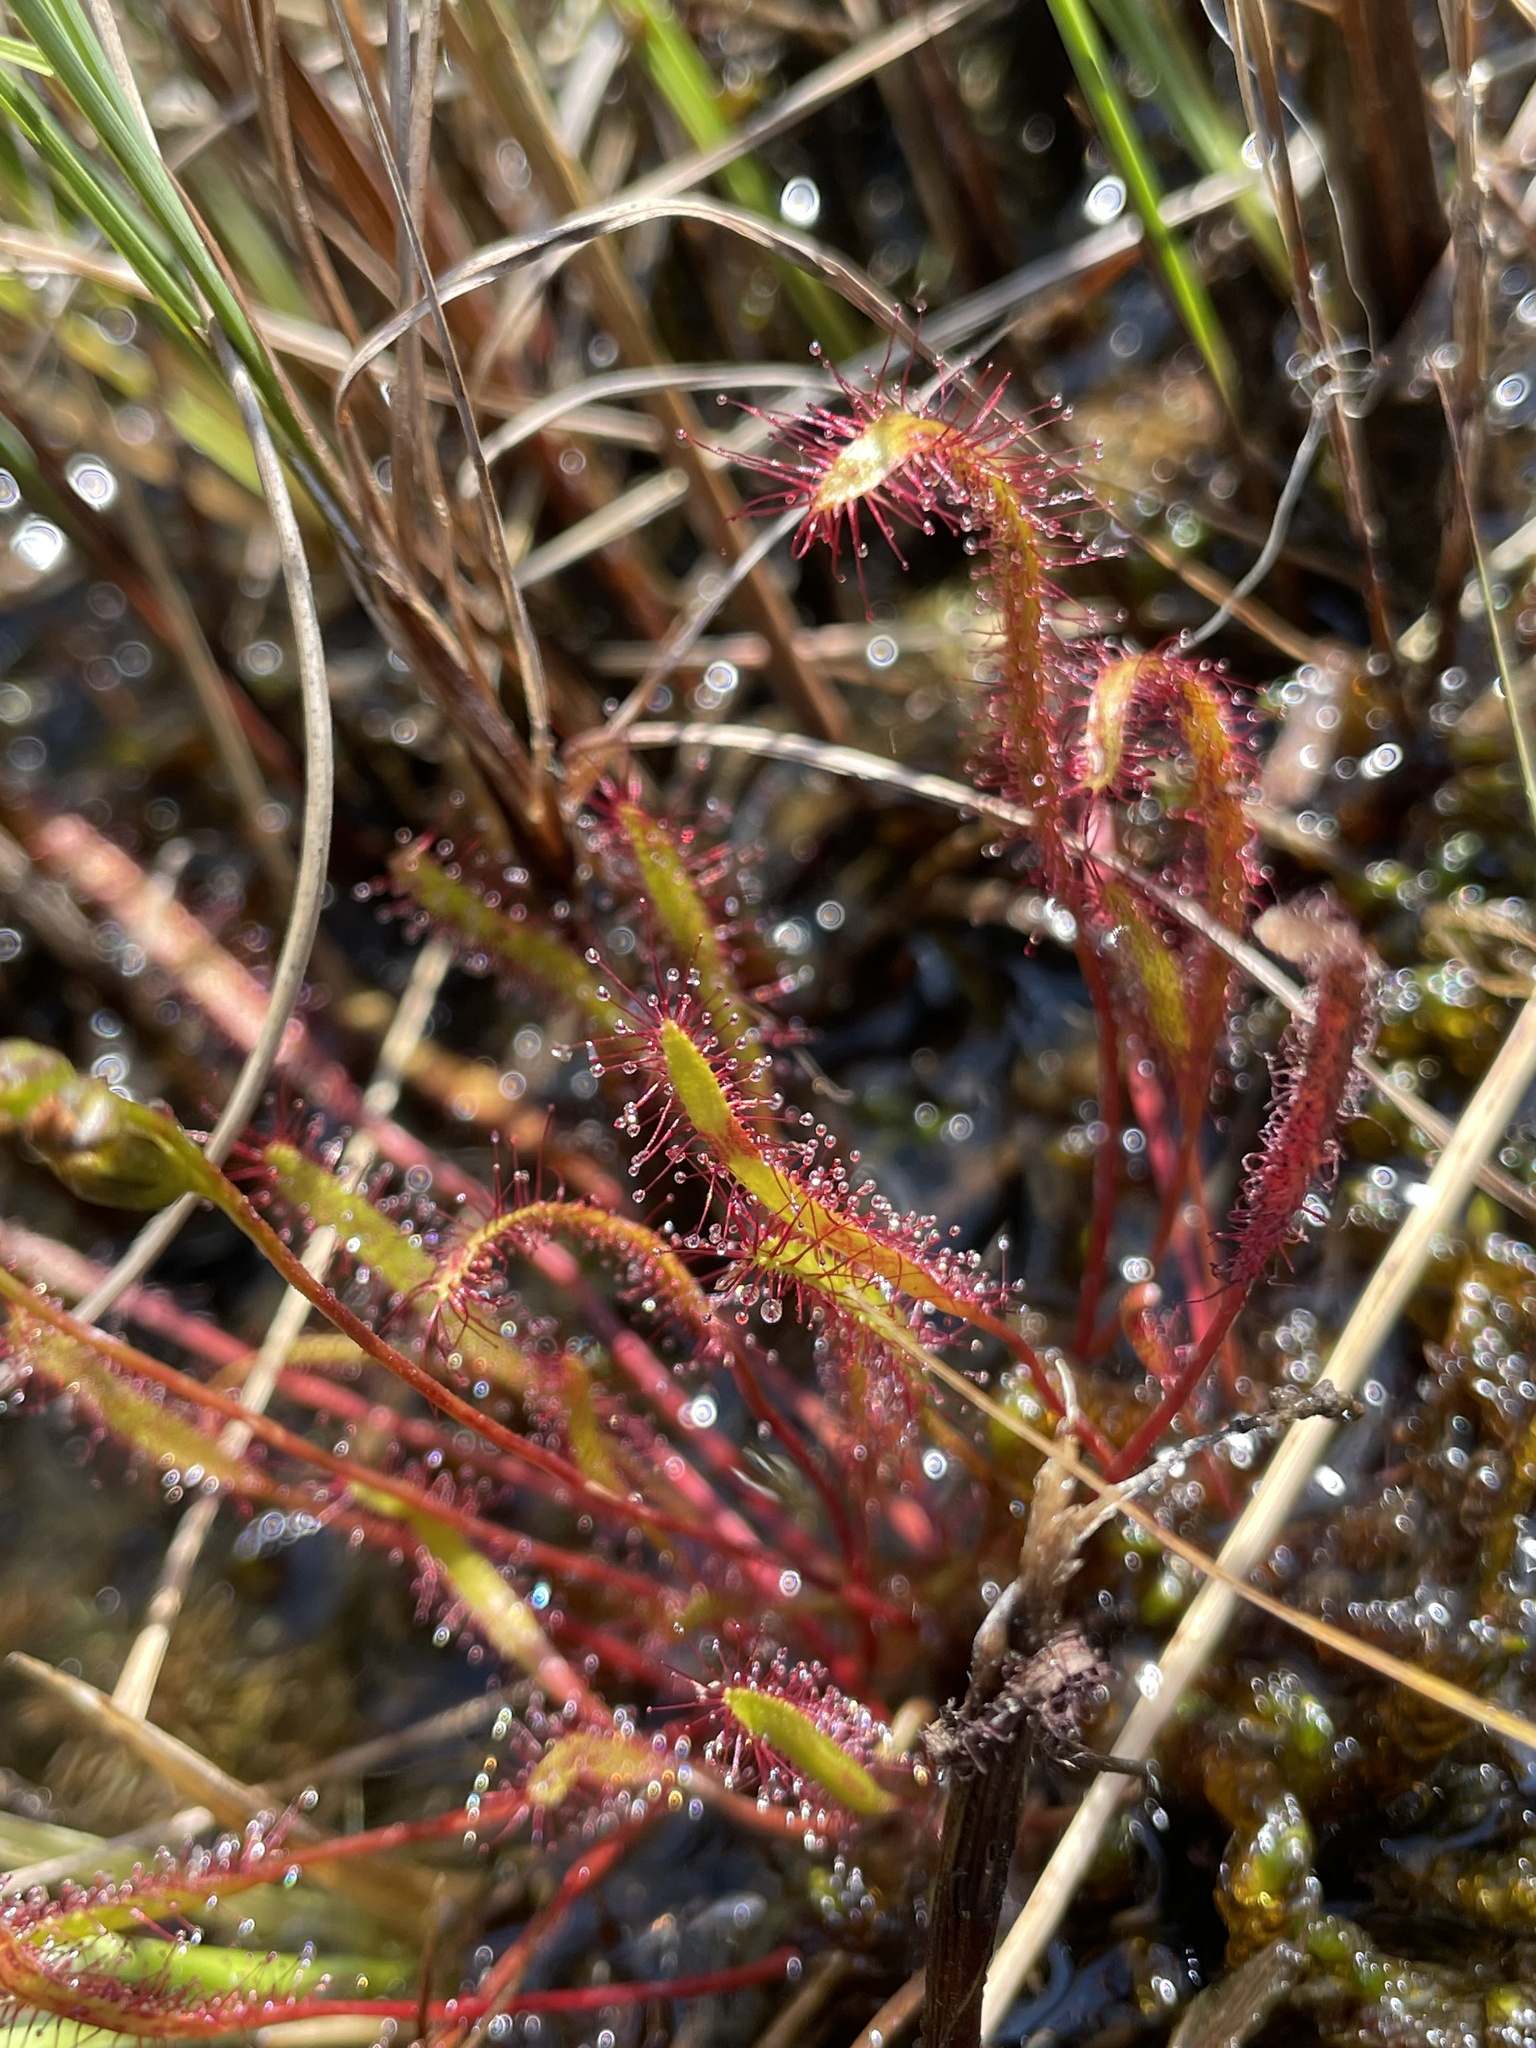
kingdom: Plantae
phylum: Tracheophyta
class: Magnoliopsida
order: Caryophyllales
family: Droseraceae
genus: Drosera
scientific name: Drosera linearis
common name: Linear-leaved sundew
